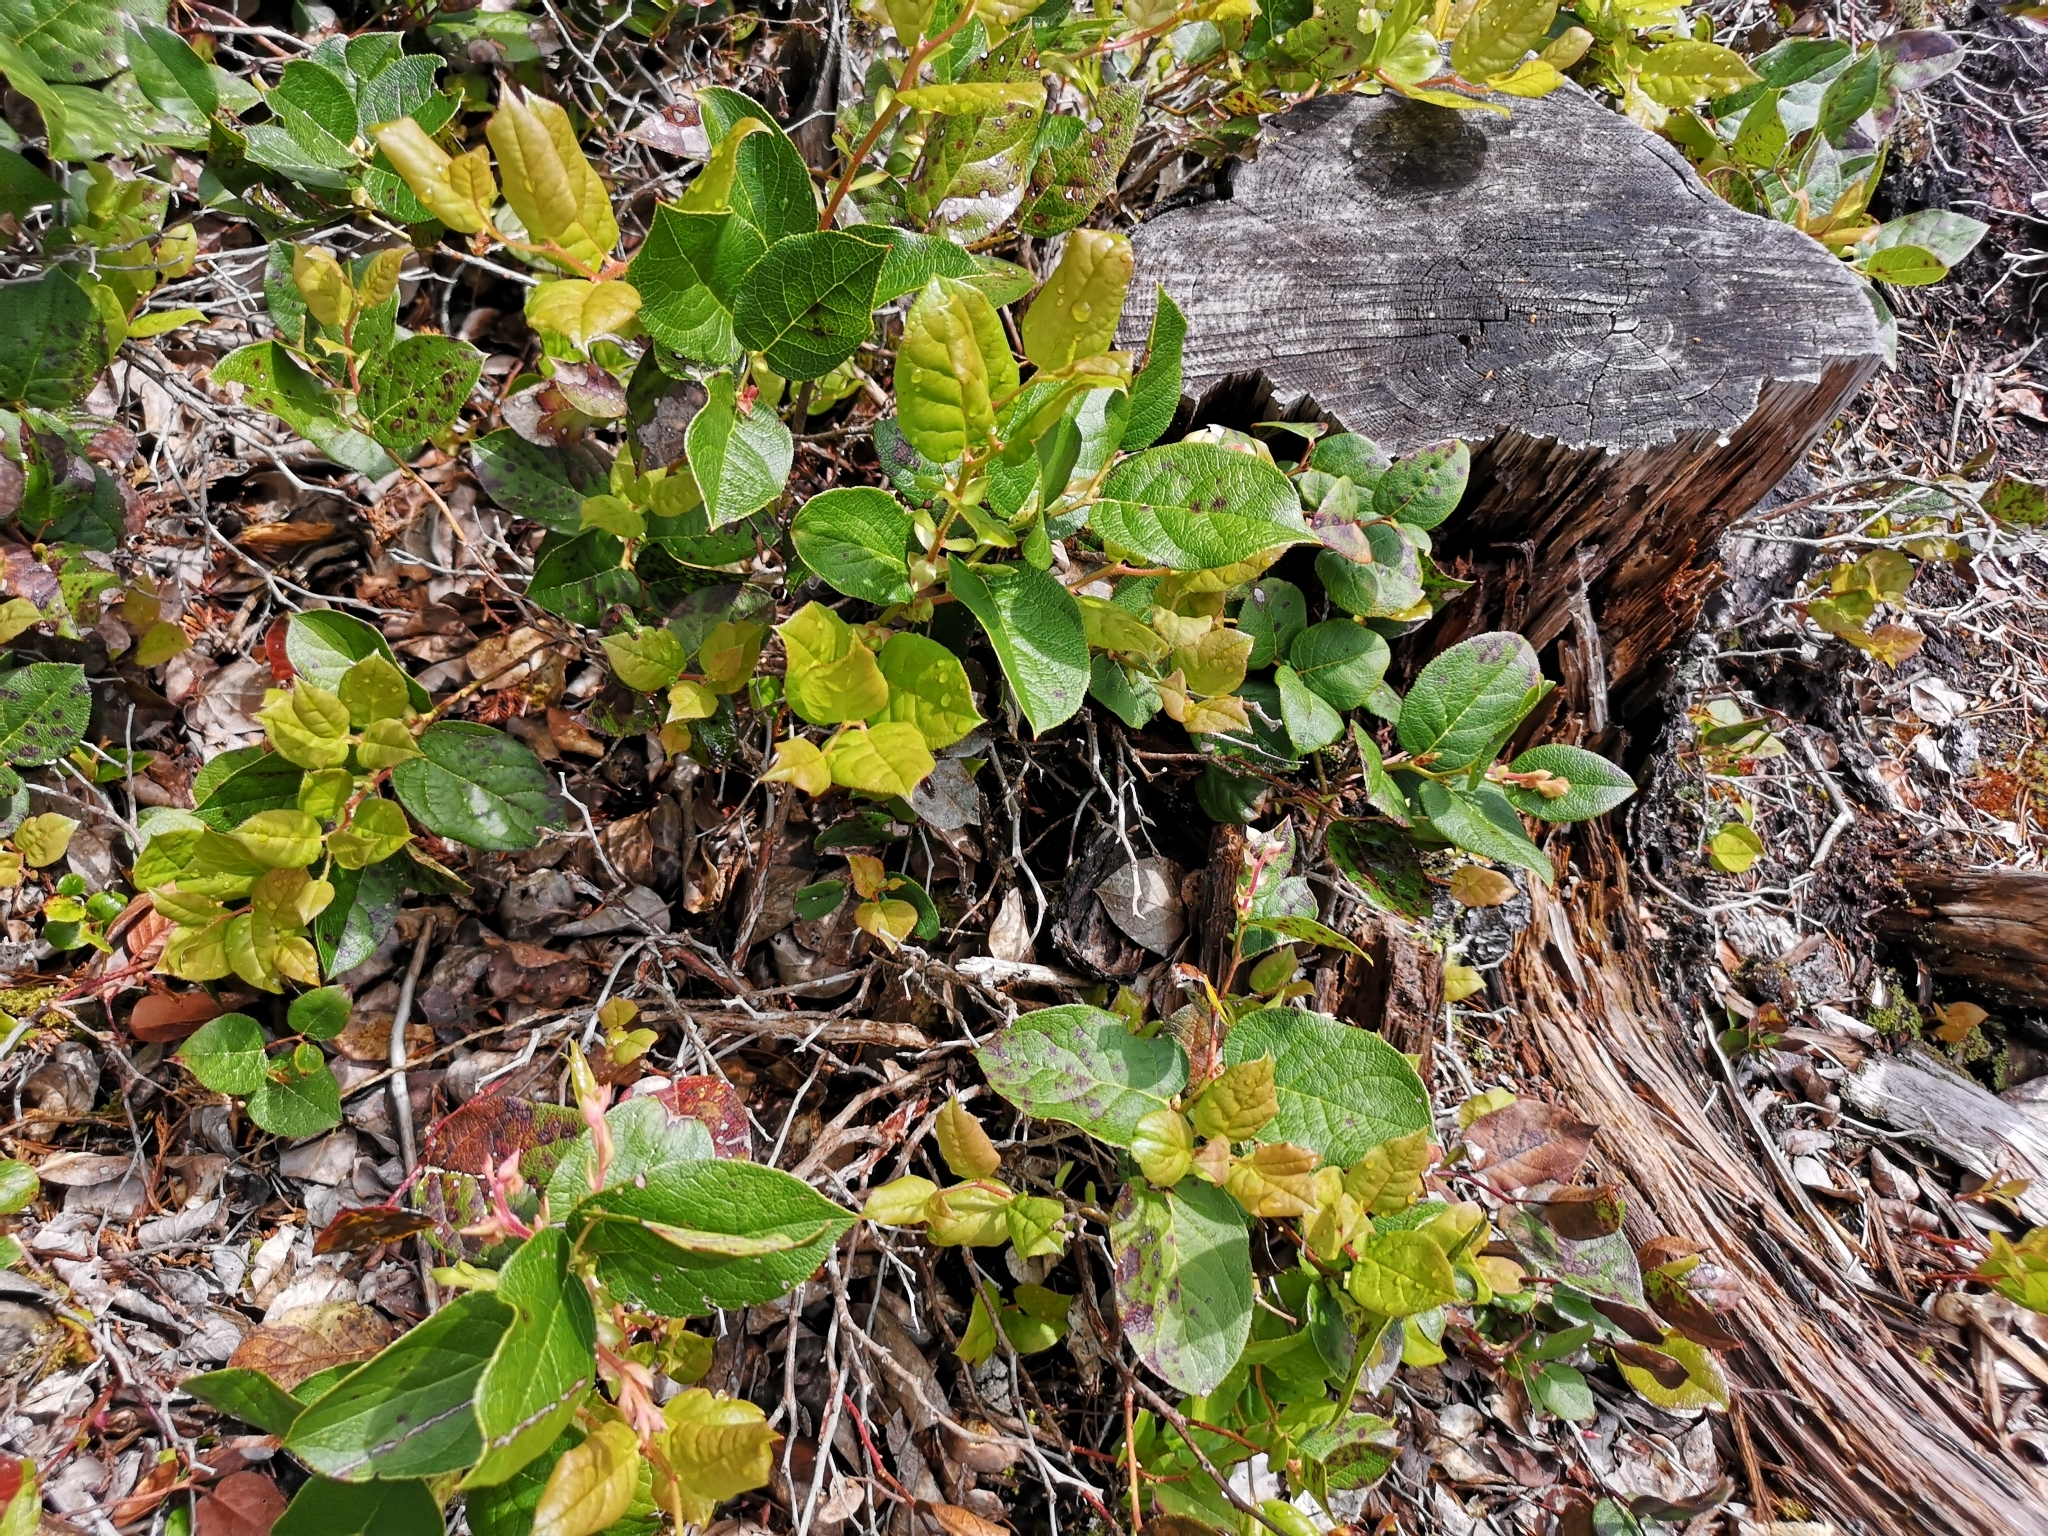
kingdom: Plantae
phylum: Tracheophyta
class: Magnoliopsida
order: Ericales
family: Ericaceae
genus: Gaultheria
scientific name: Gaultheria shallon
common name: Shallon
